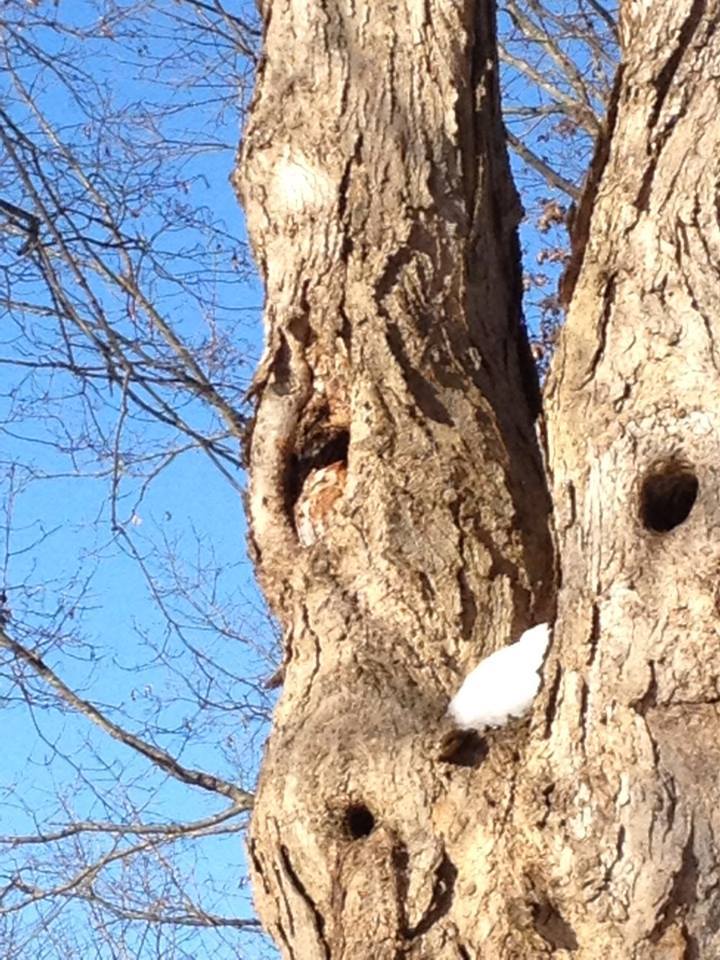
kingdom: Animalia
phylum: Chordata
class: Aves
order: Strigiformes
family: Strigidae
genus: Megascops
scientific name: Megascops asio
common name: Eastern screech-owl
